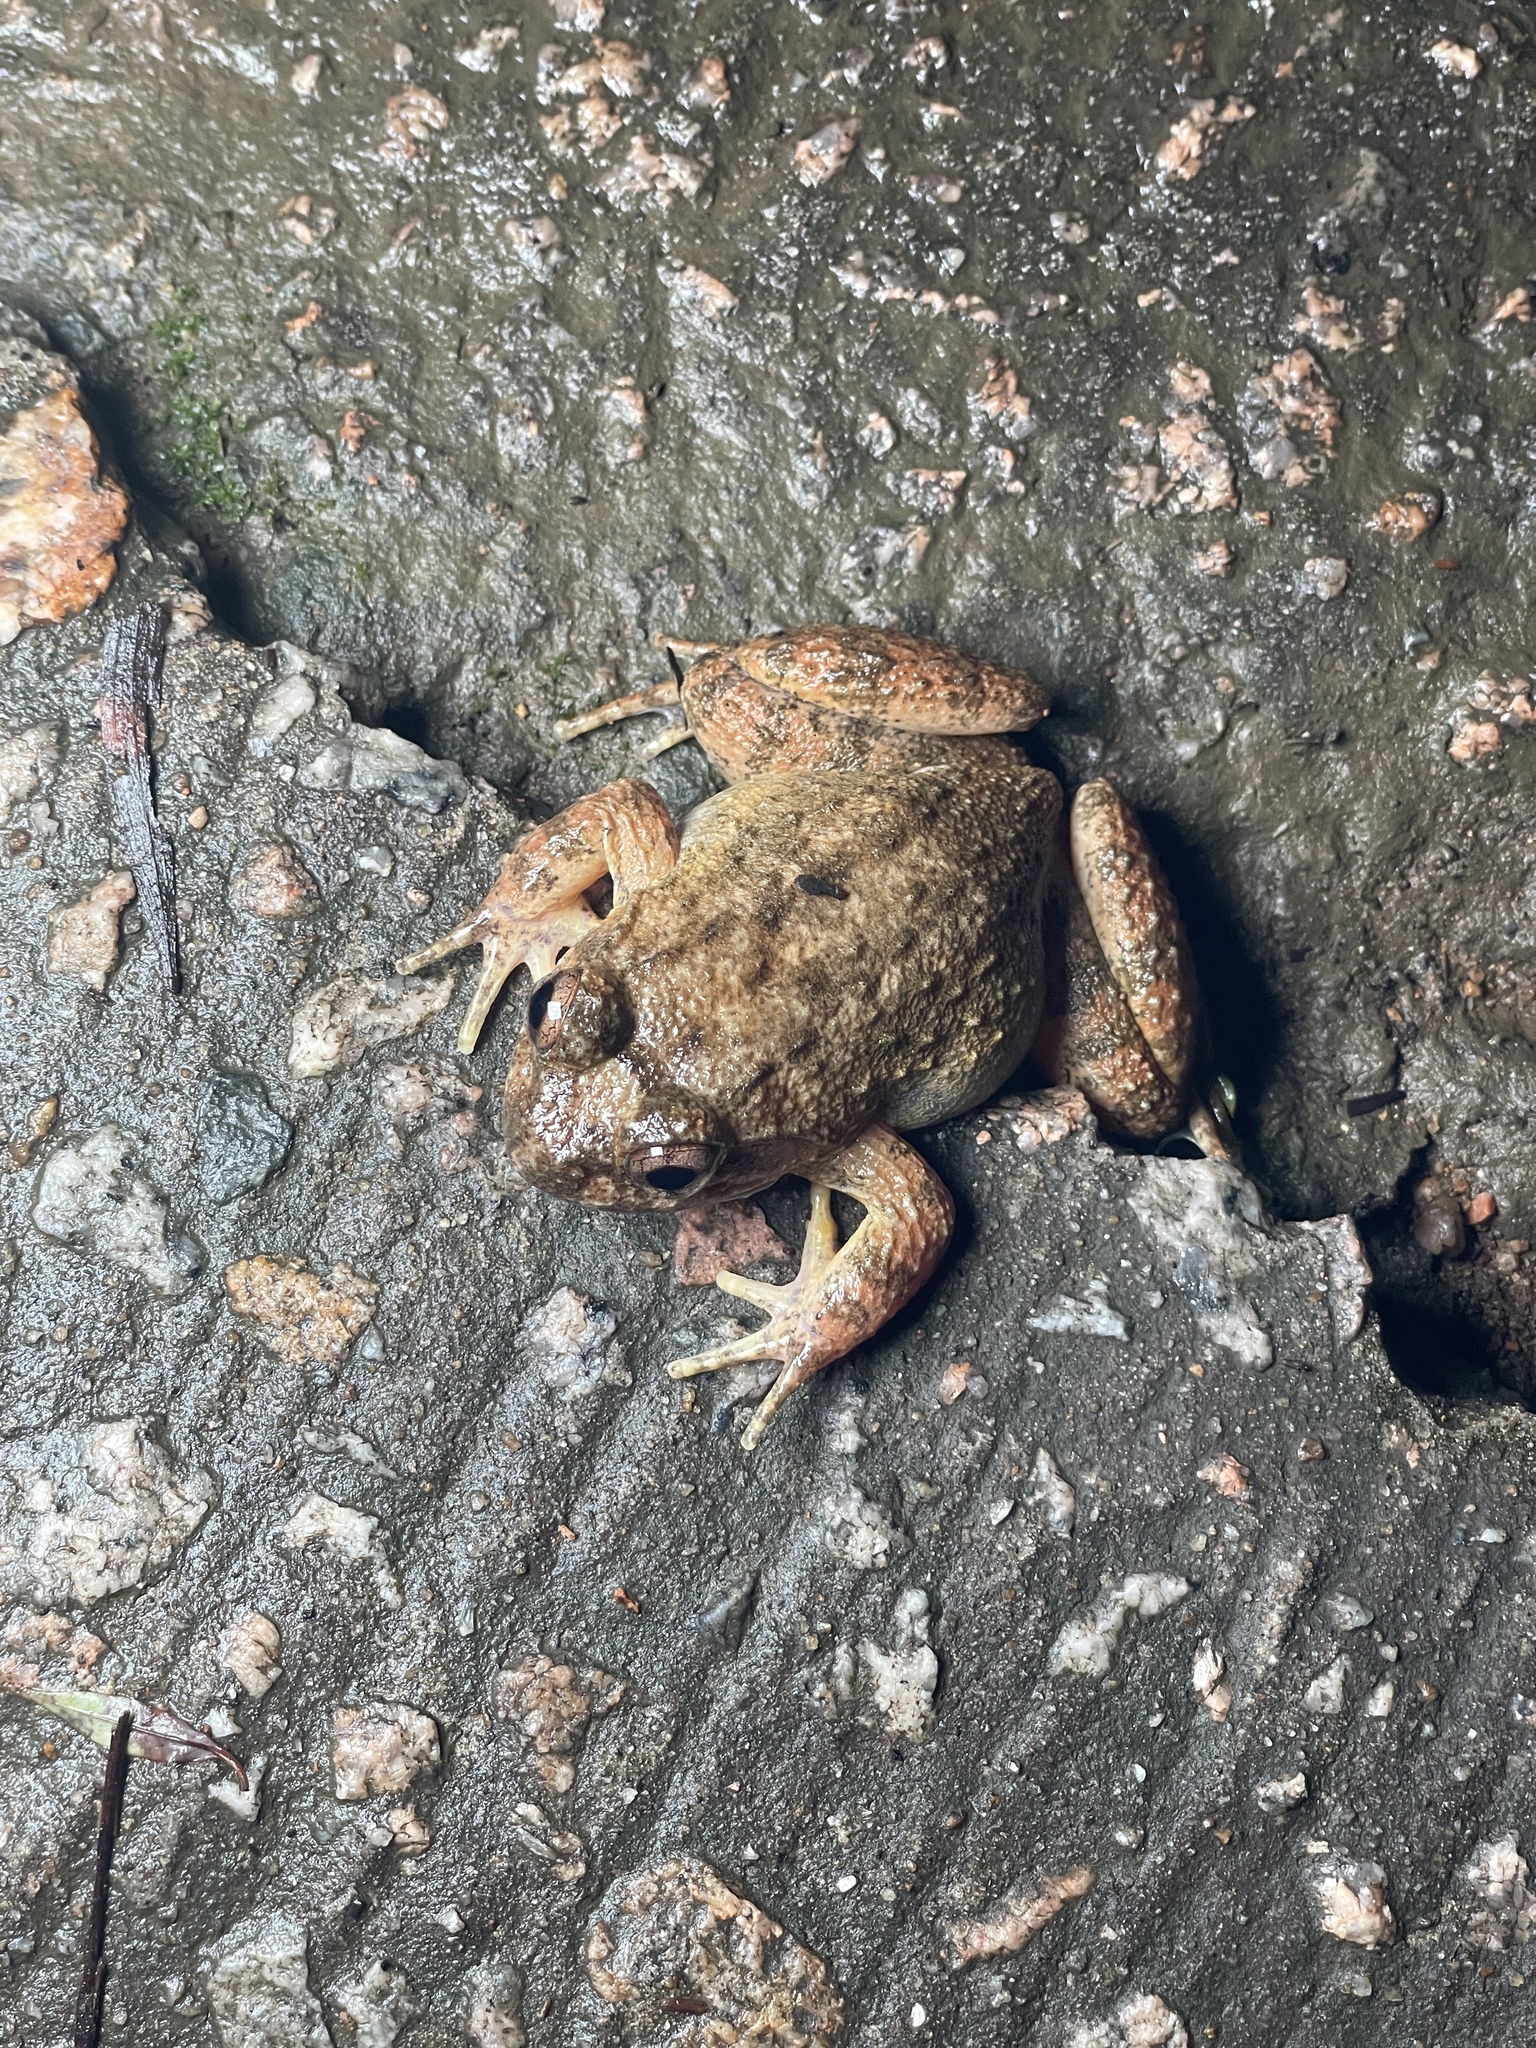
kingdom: Animalia
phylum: Chordata
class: Amphibia
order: Anura
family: Dicroglossidae
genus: Quasipaa
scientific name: Quasipaa exilispinosa
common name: Hong kong paa frog
